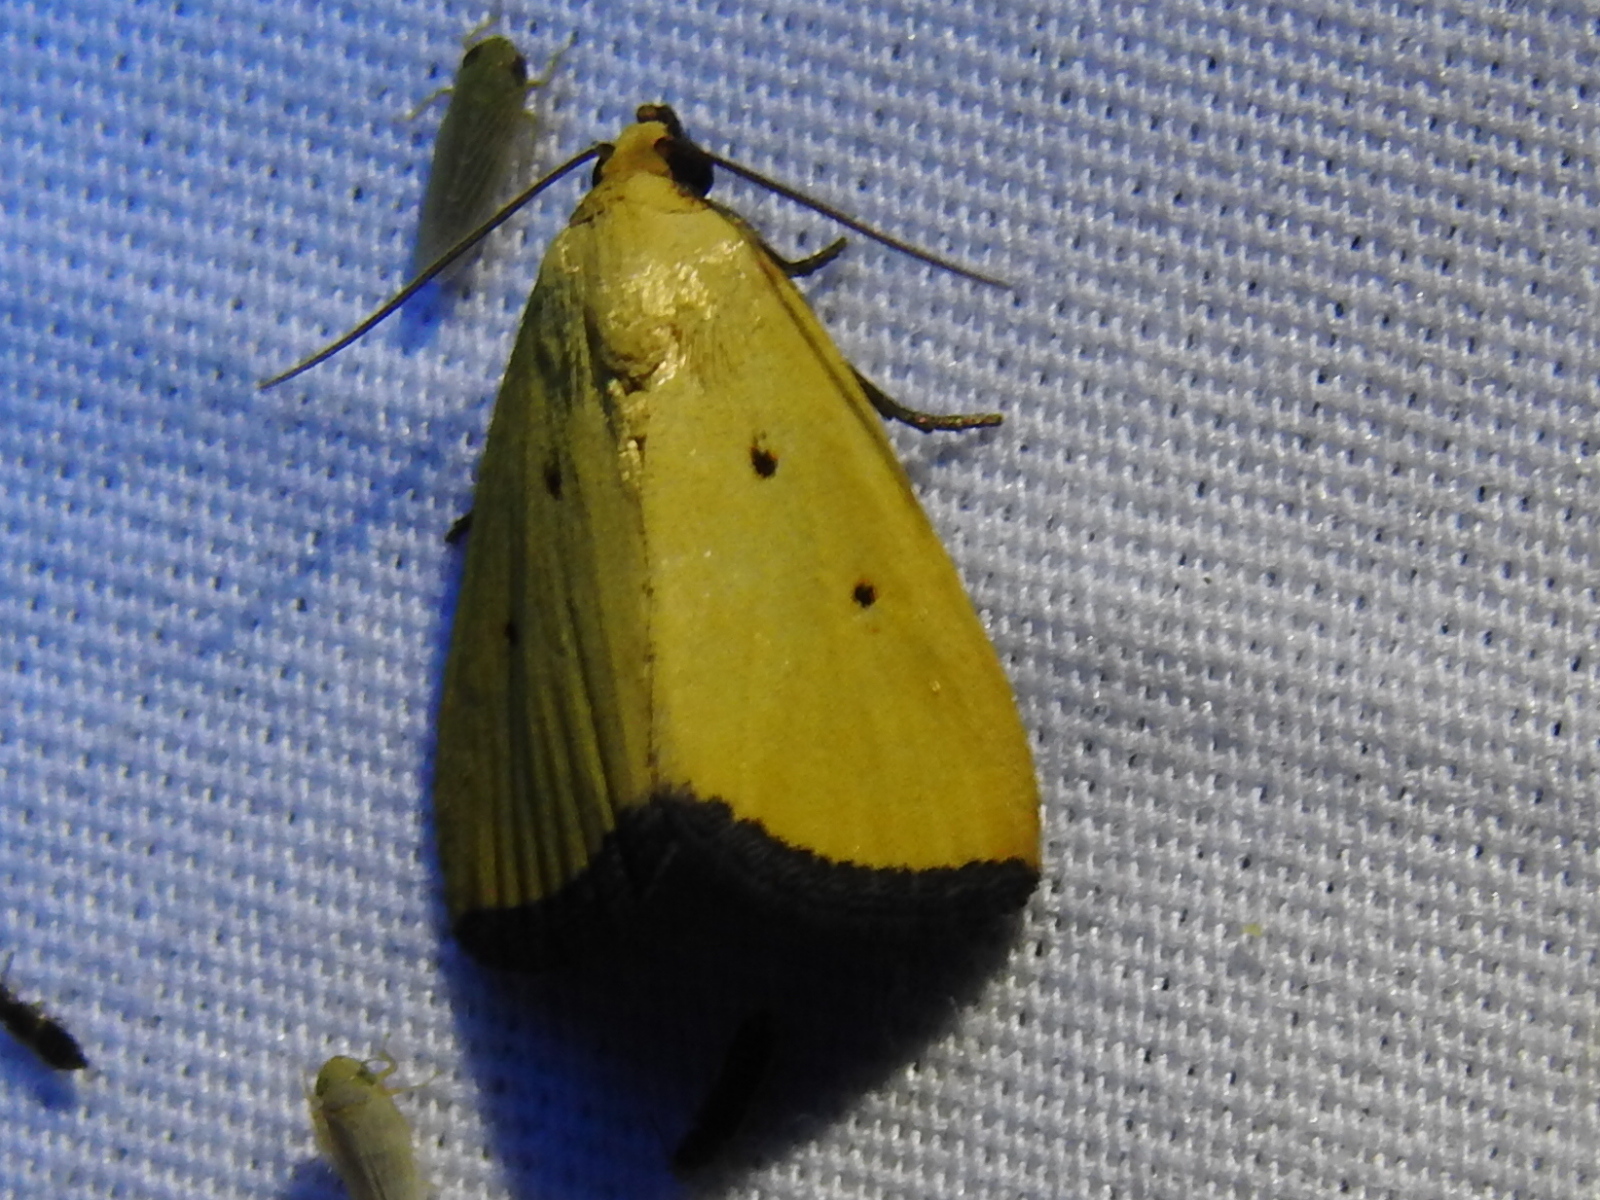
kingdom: Animalia
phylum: Arthropoda
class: Insecta
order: Lepidoptera
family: Noctuidae
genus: Marimatha
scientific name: Marimatha nigrofimbria
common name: Black-bordered lemon moth
